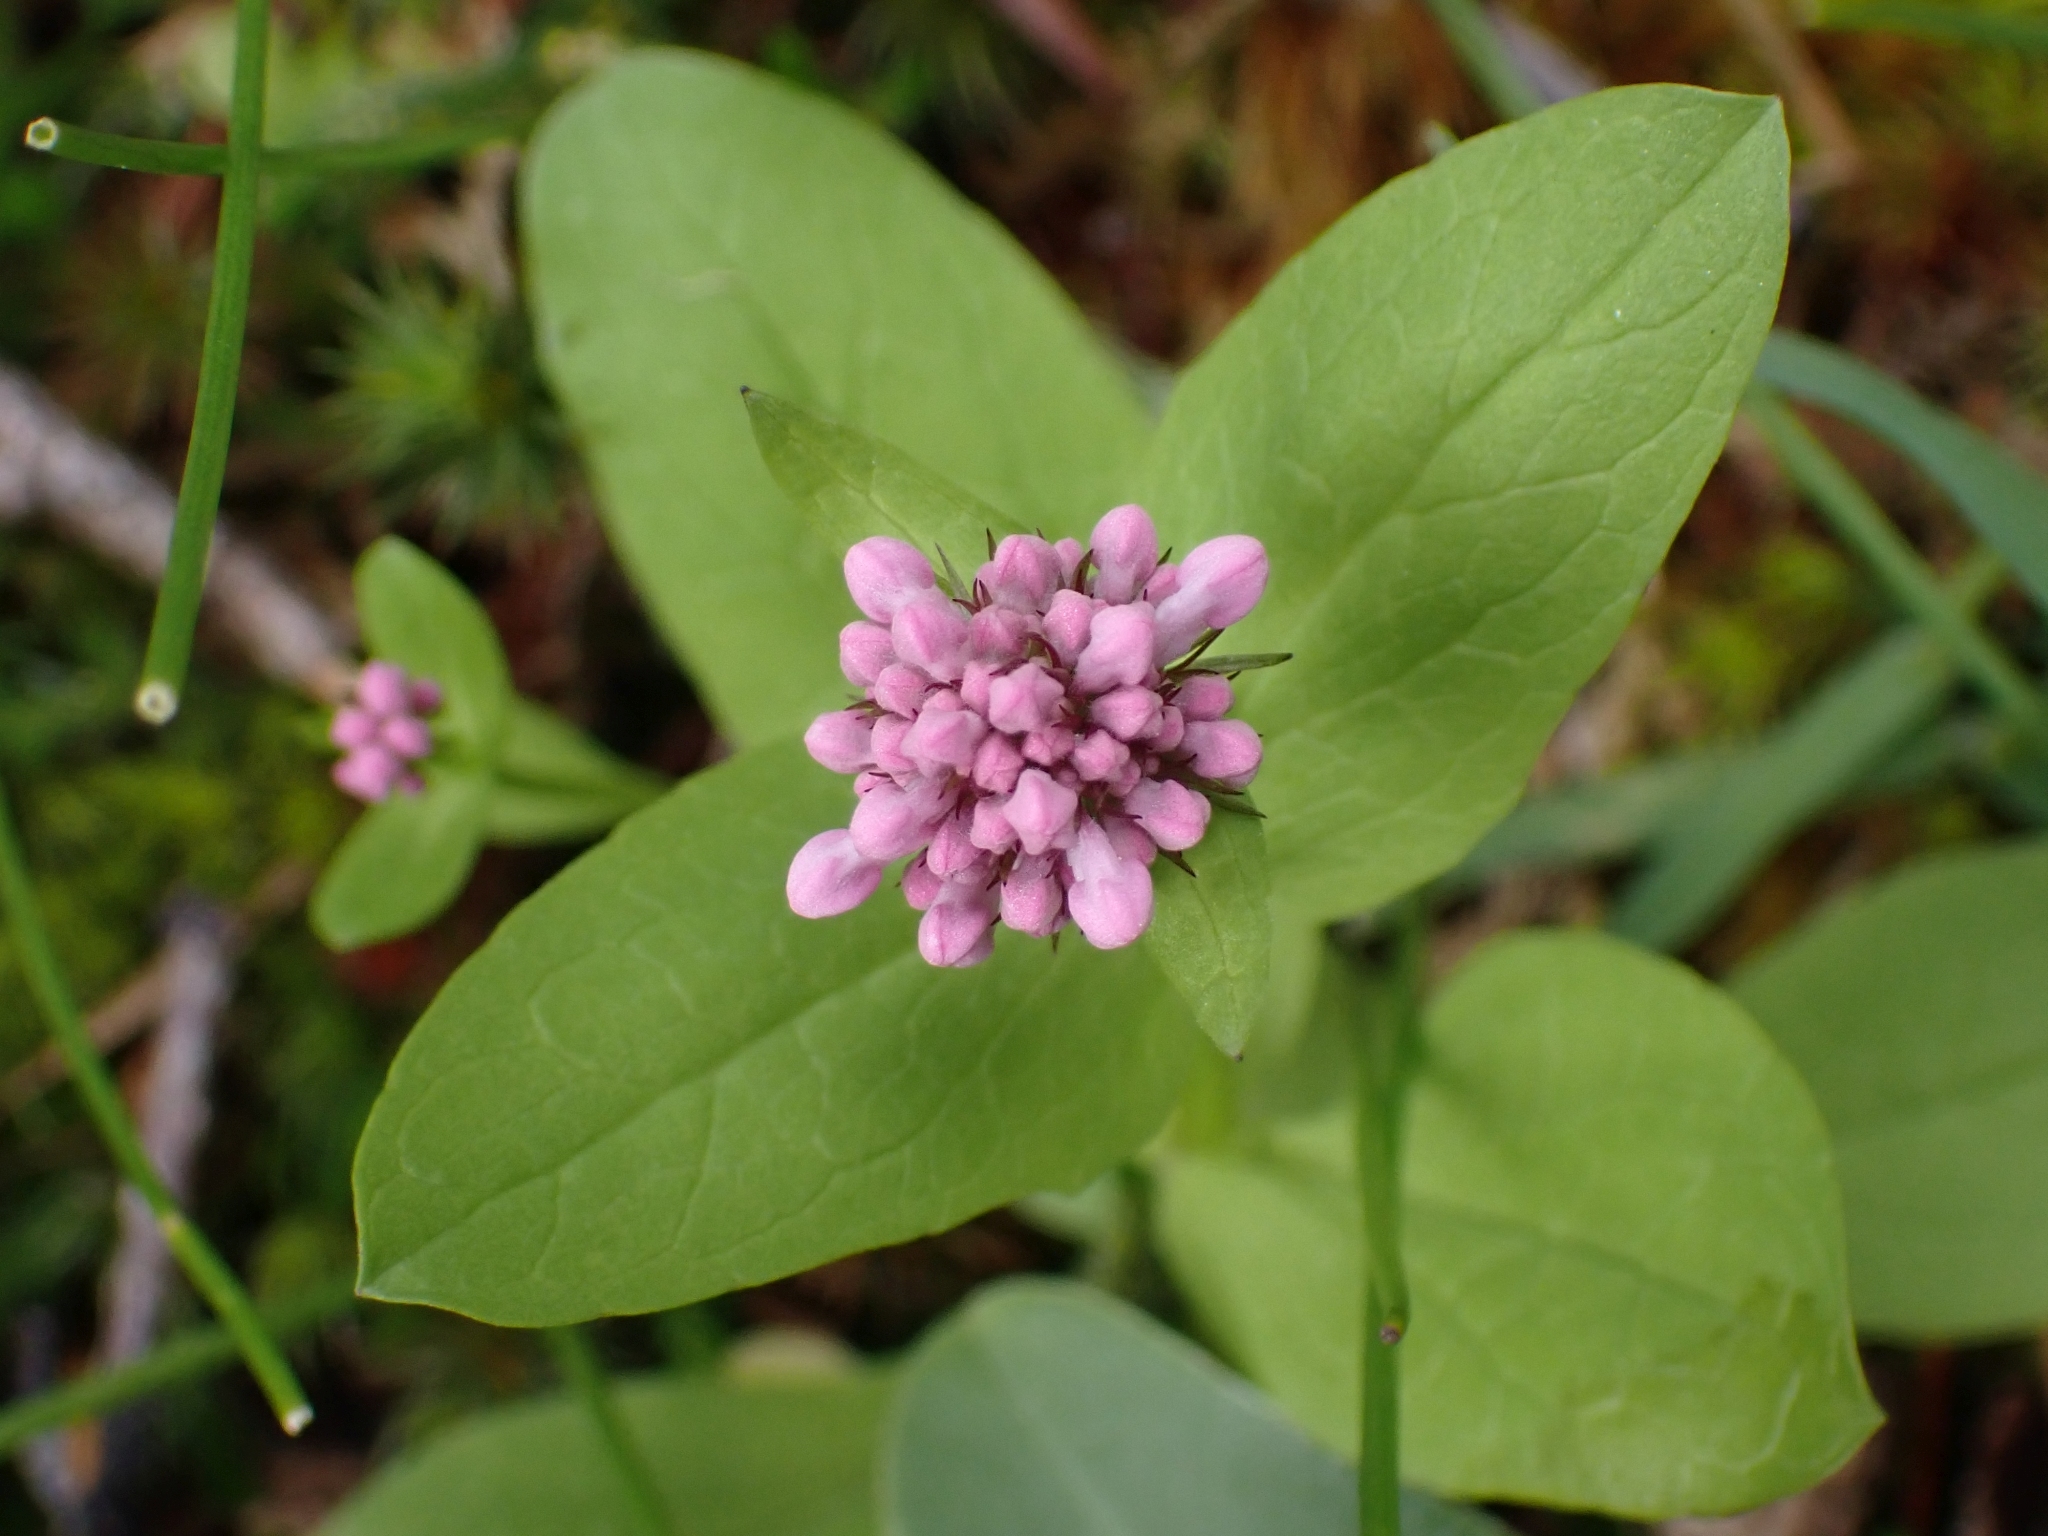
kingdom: Plantae
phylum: Tracheophyta
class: Magnoliopsida
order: Dipsacales
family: Caprifoliaceae
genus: Plectritis
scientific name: Plectritis congesta
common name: Pink plectritis
